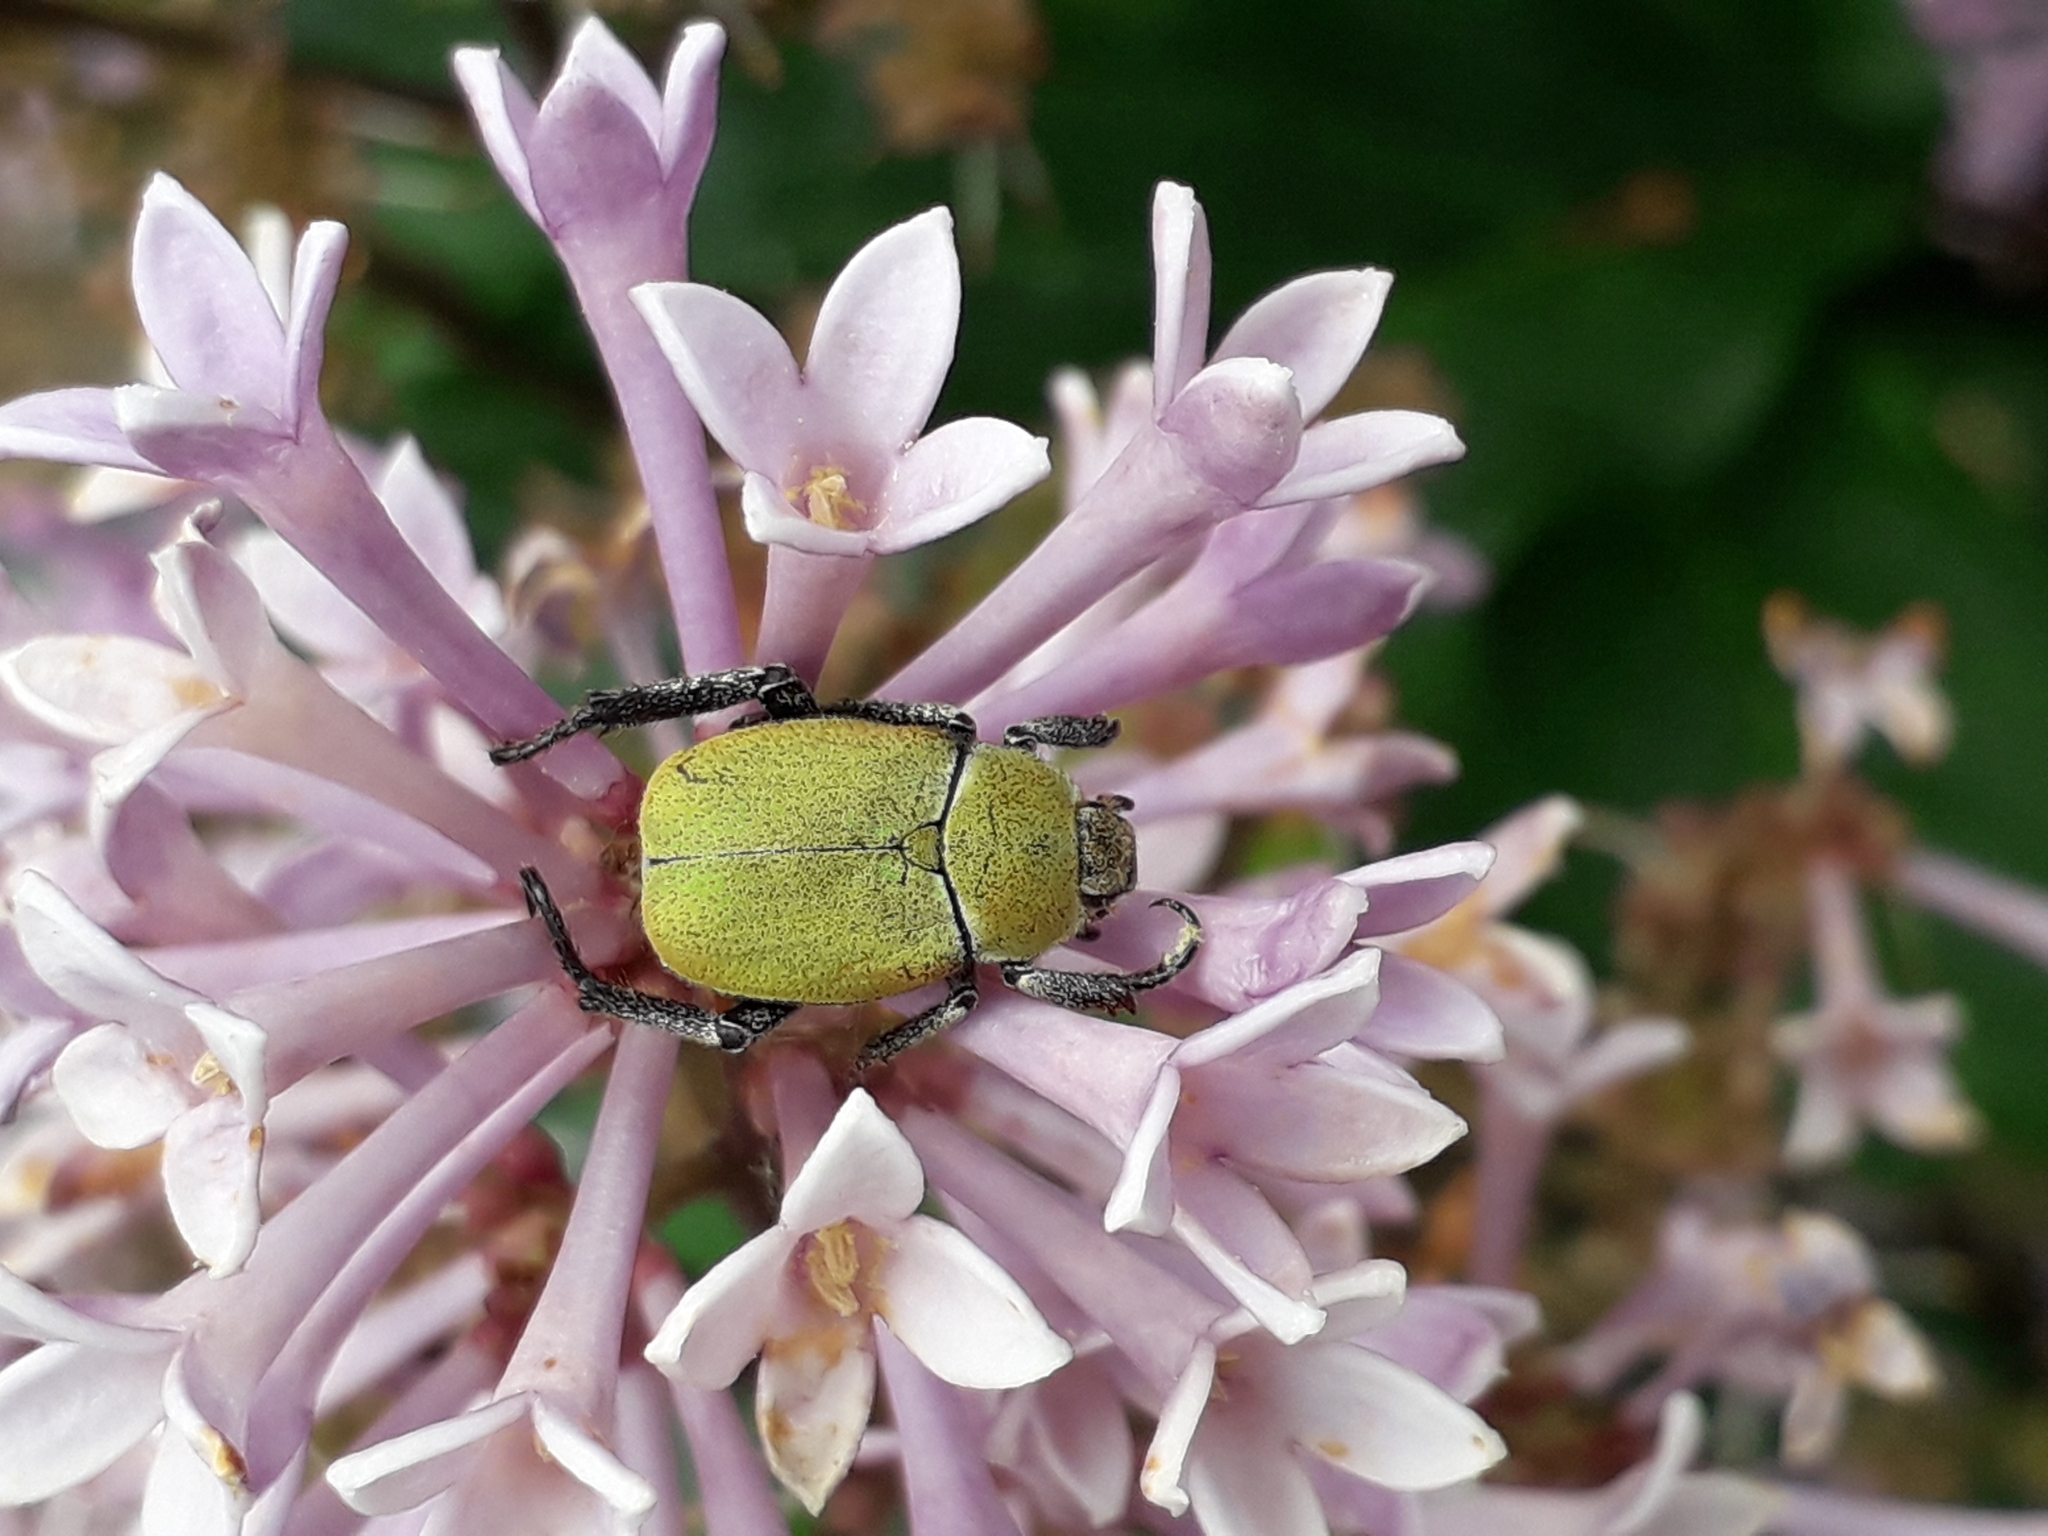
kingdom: Animalia
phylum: Arthropoda
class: Insecta
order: Coleoptera
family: Scarabaeidae
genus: Hoplia
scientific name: Hoplia argentea
